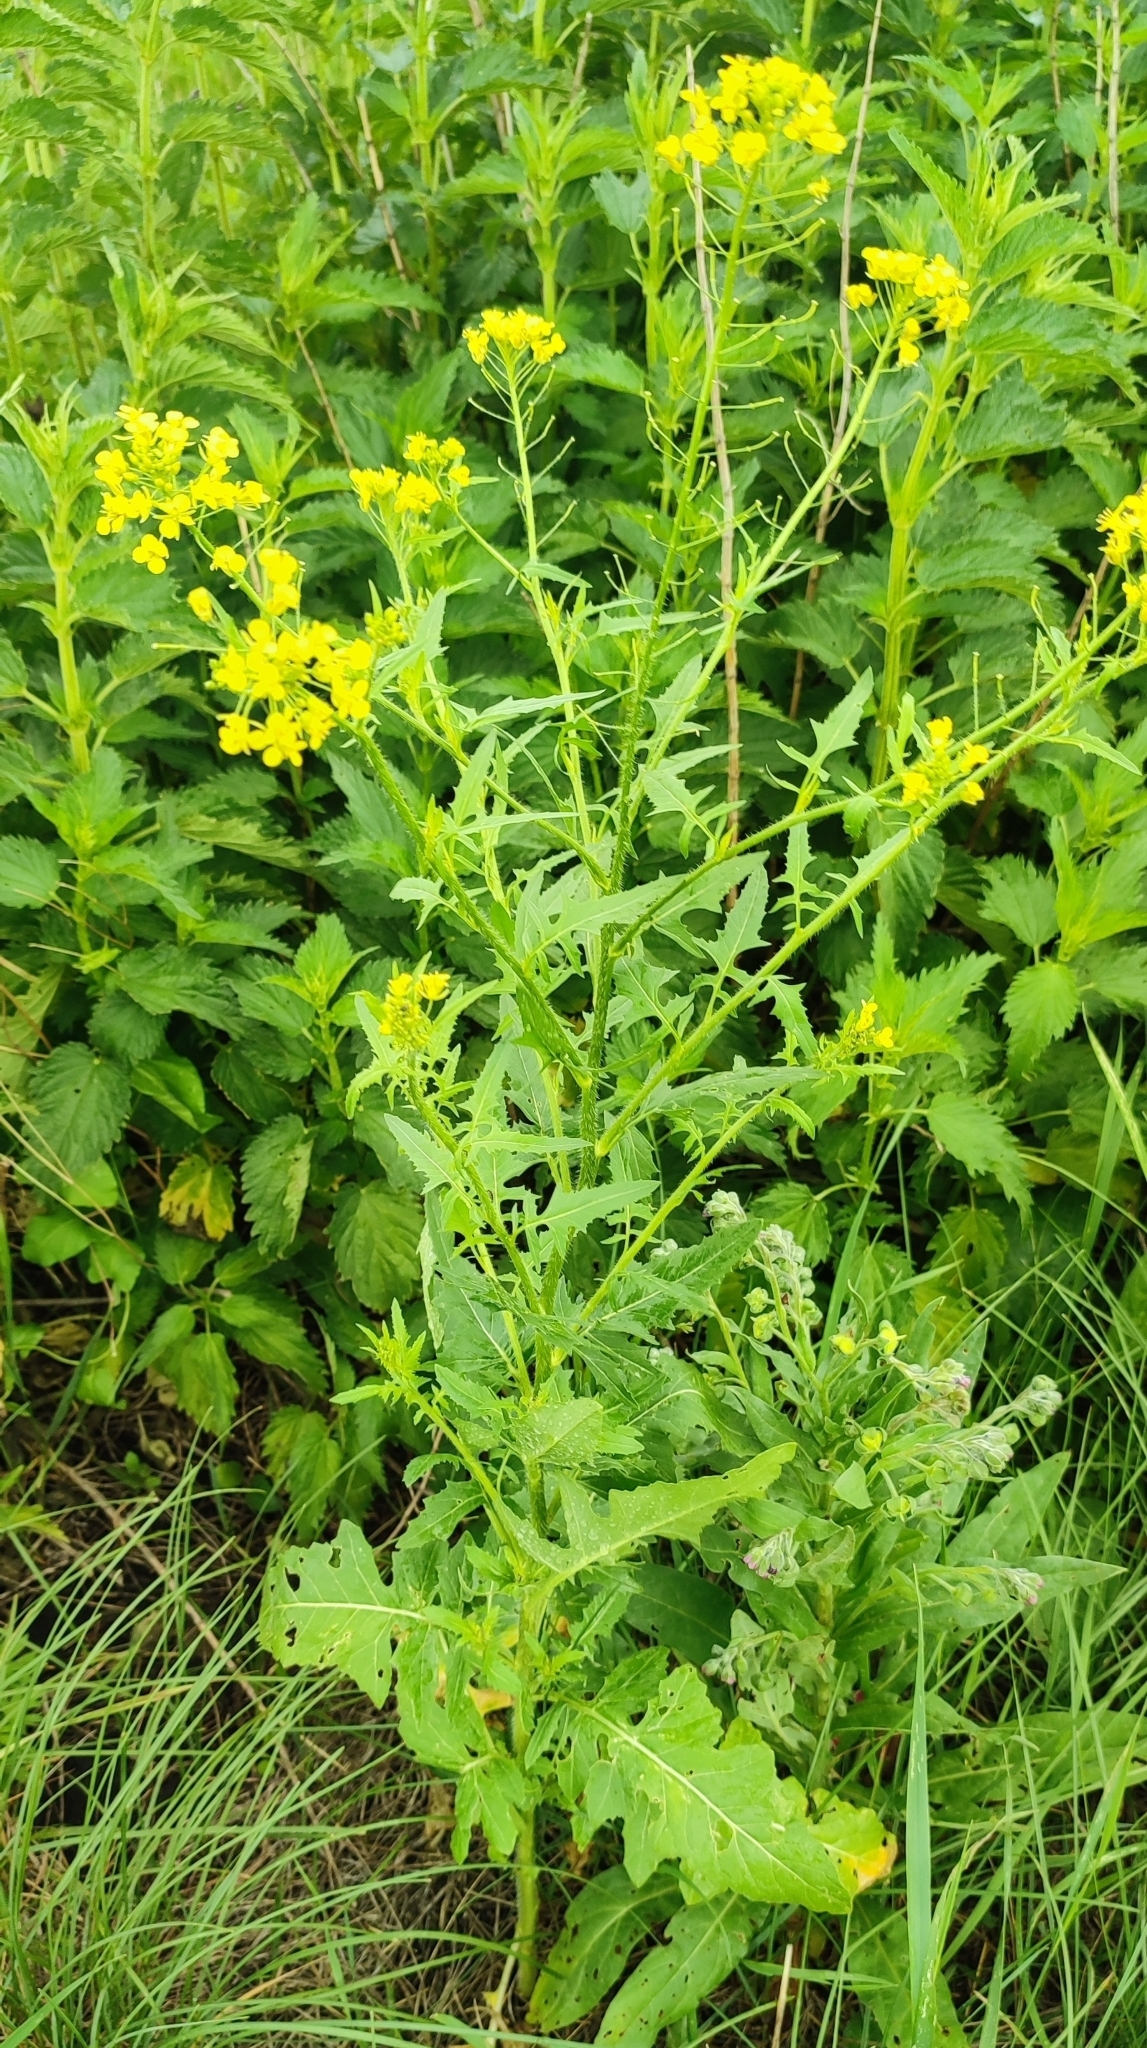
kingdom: Plantae
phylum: Tracheophyta
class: Magnoliopsida
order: Brassicales
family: Brassicaceae
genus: Sisymbrium
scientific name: Sisymbrium loeselii
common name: False london-rocket
